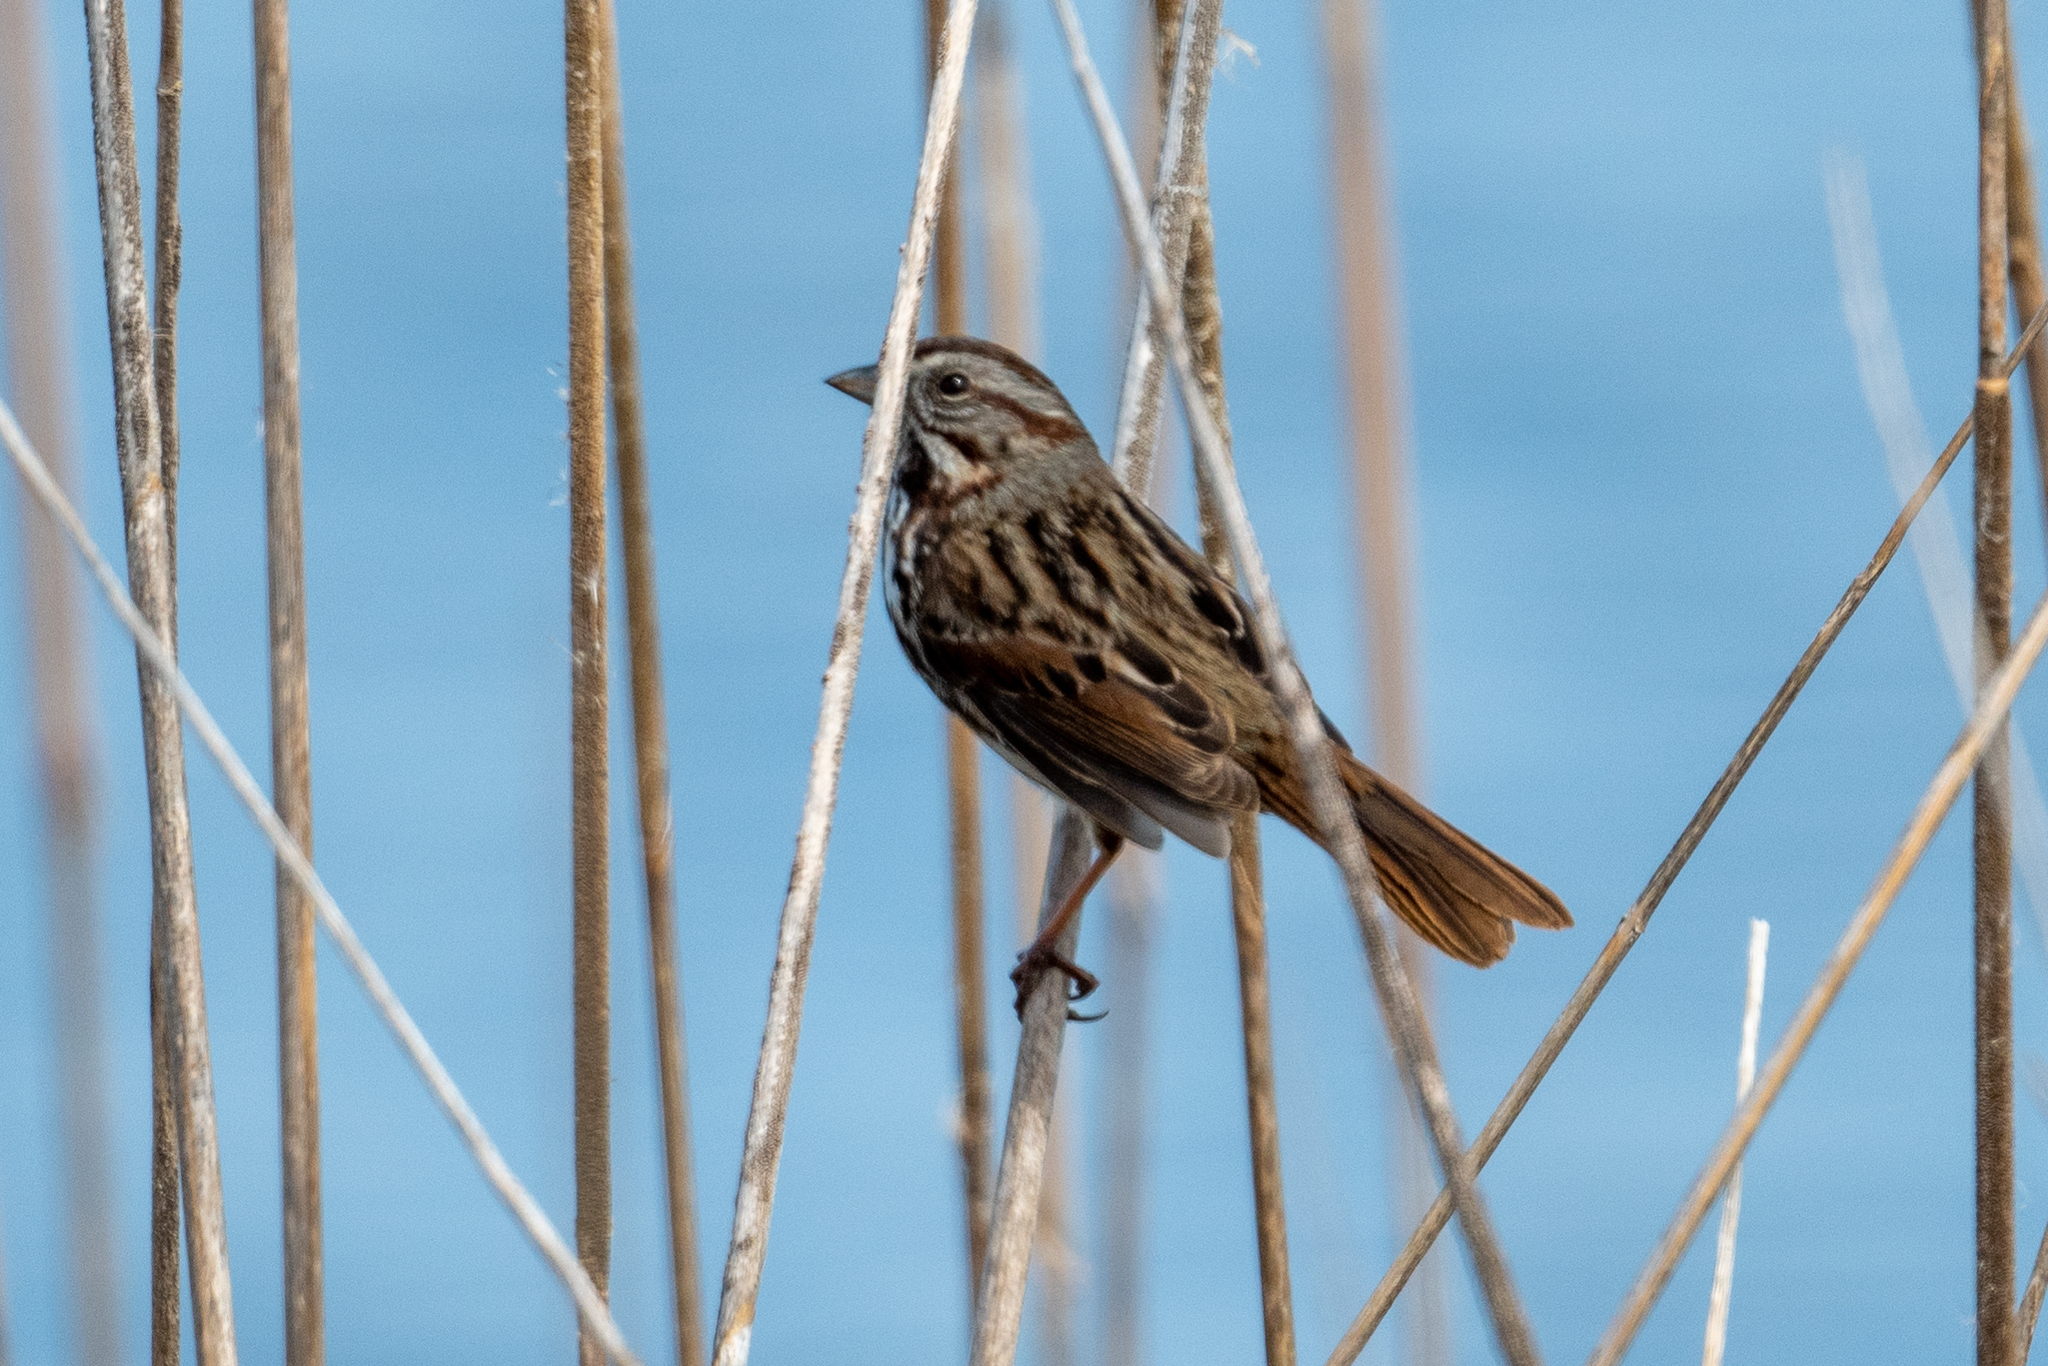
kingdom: Animalia
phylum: Chordata
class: Aves
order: Passeriformes
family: Passerellidae
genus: Melospiza
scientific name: Melospiza melodia
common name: Song sparrow
